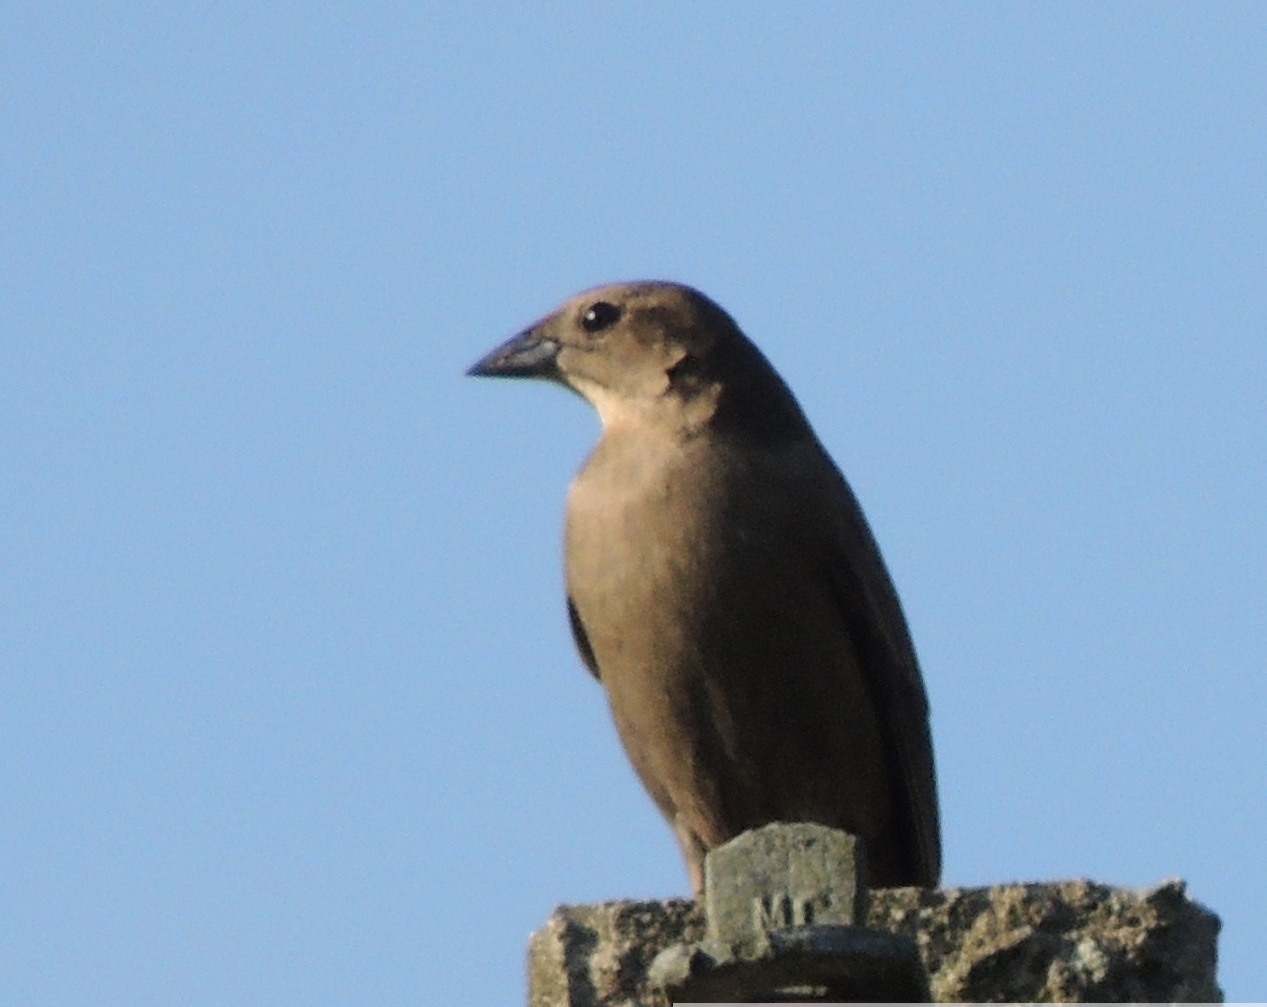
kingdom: Animalia
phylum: Chordata
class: Aves
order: Passeriformes
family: Icteridae
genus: Molothrus
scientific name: Molothrus bonariensis
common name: Shiny cowbird
